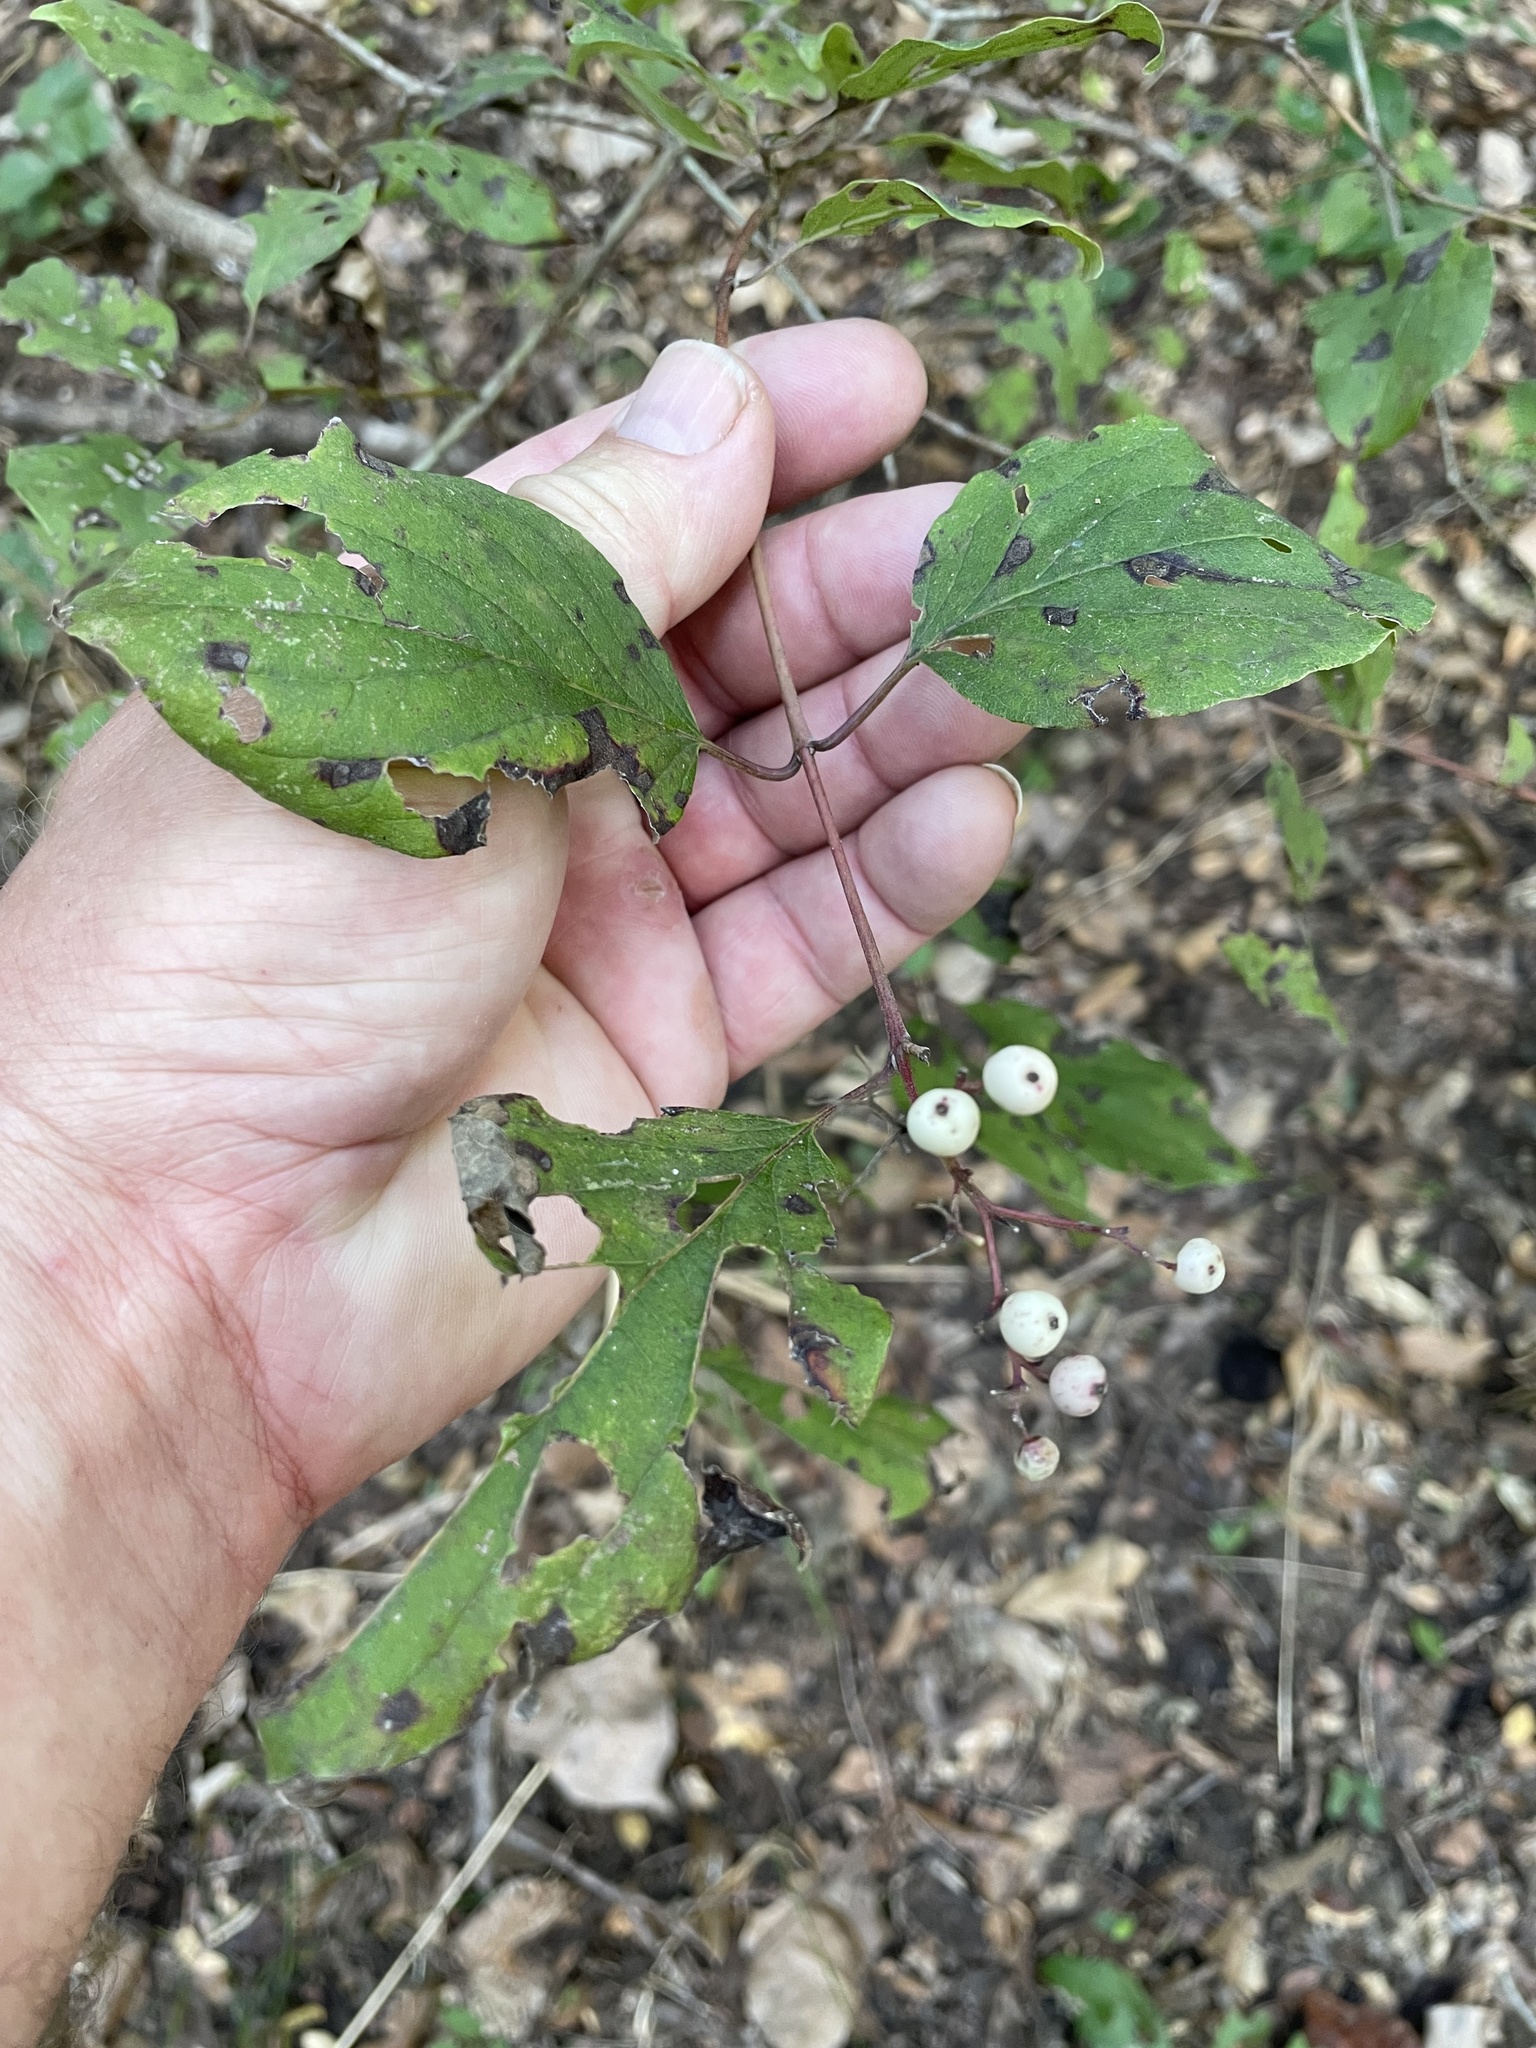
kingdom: Plantae
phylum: Tracheophyta
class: Magnoliopsida
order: Cornales
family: Cornaceae
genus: Cornus
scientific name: Cornus drummondii
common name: Rough-leaf dogwood
